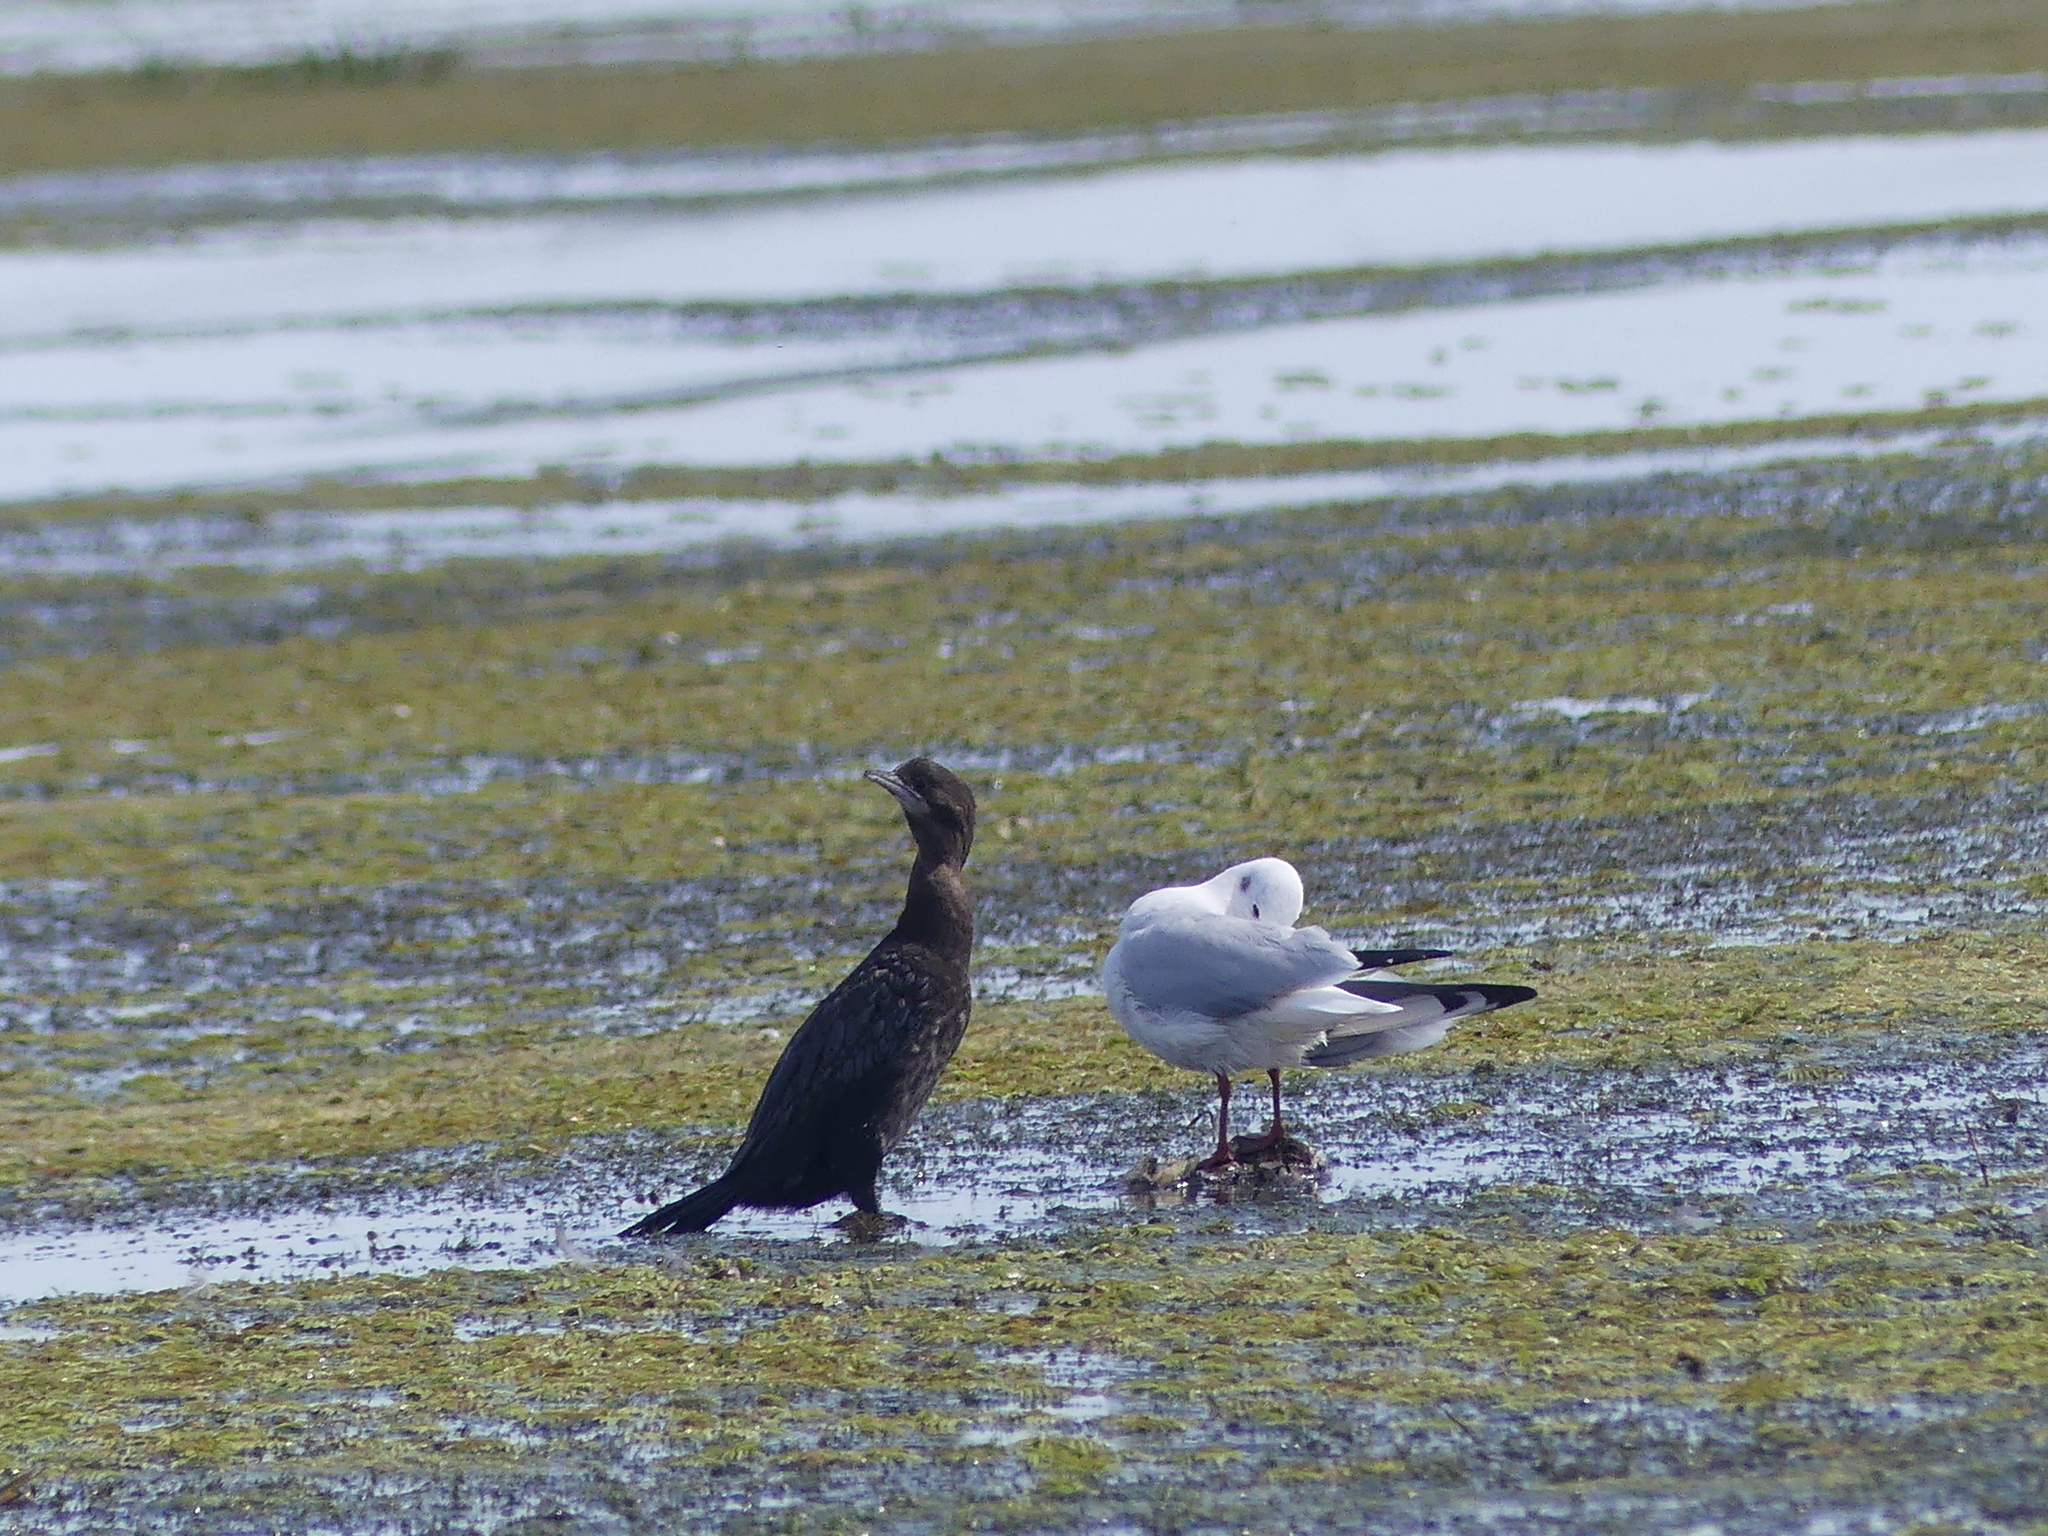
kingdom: Animalia
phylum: Chordata
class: Aves
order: Suliformes
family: Phalacrocoracidae
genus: Microcarbo
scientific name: Microcarbo pygmaeus
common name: Pygmy cormorant
